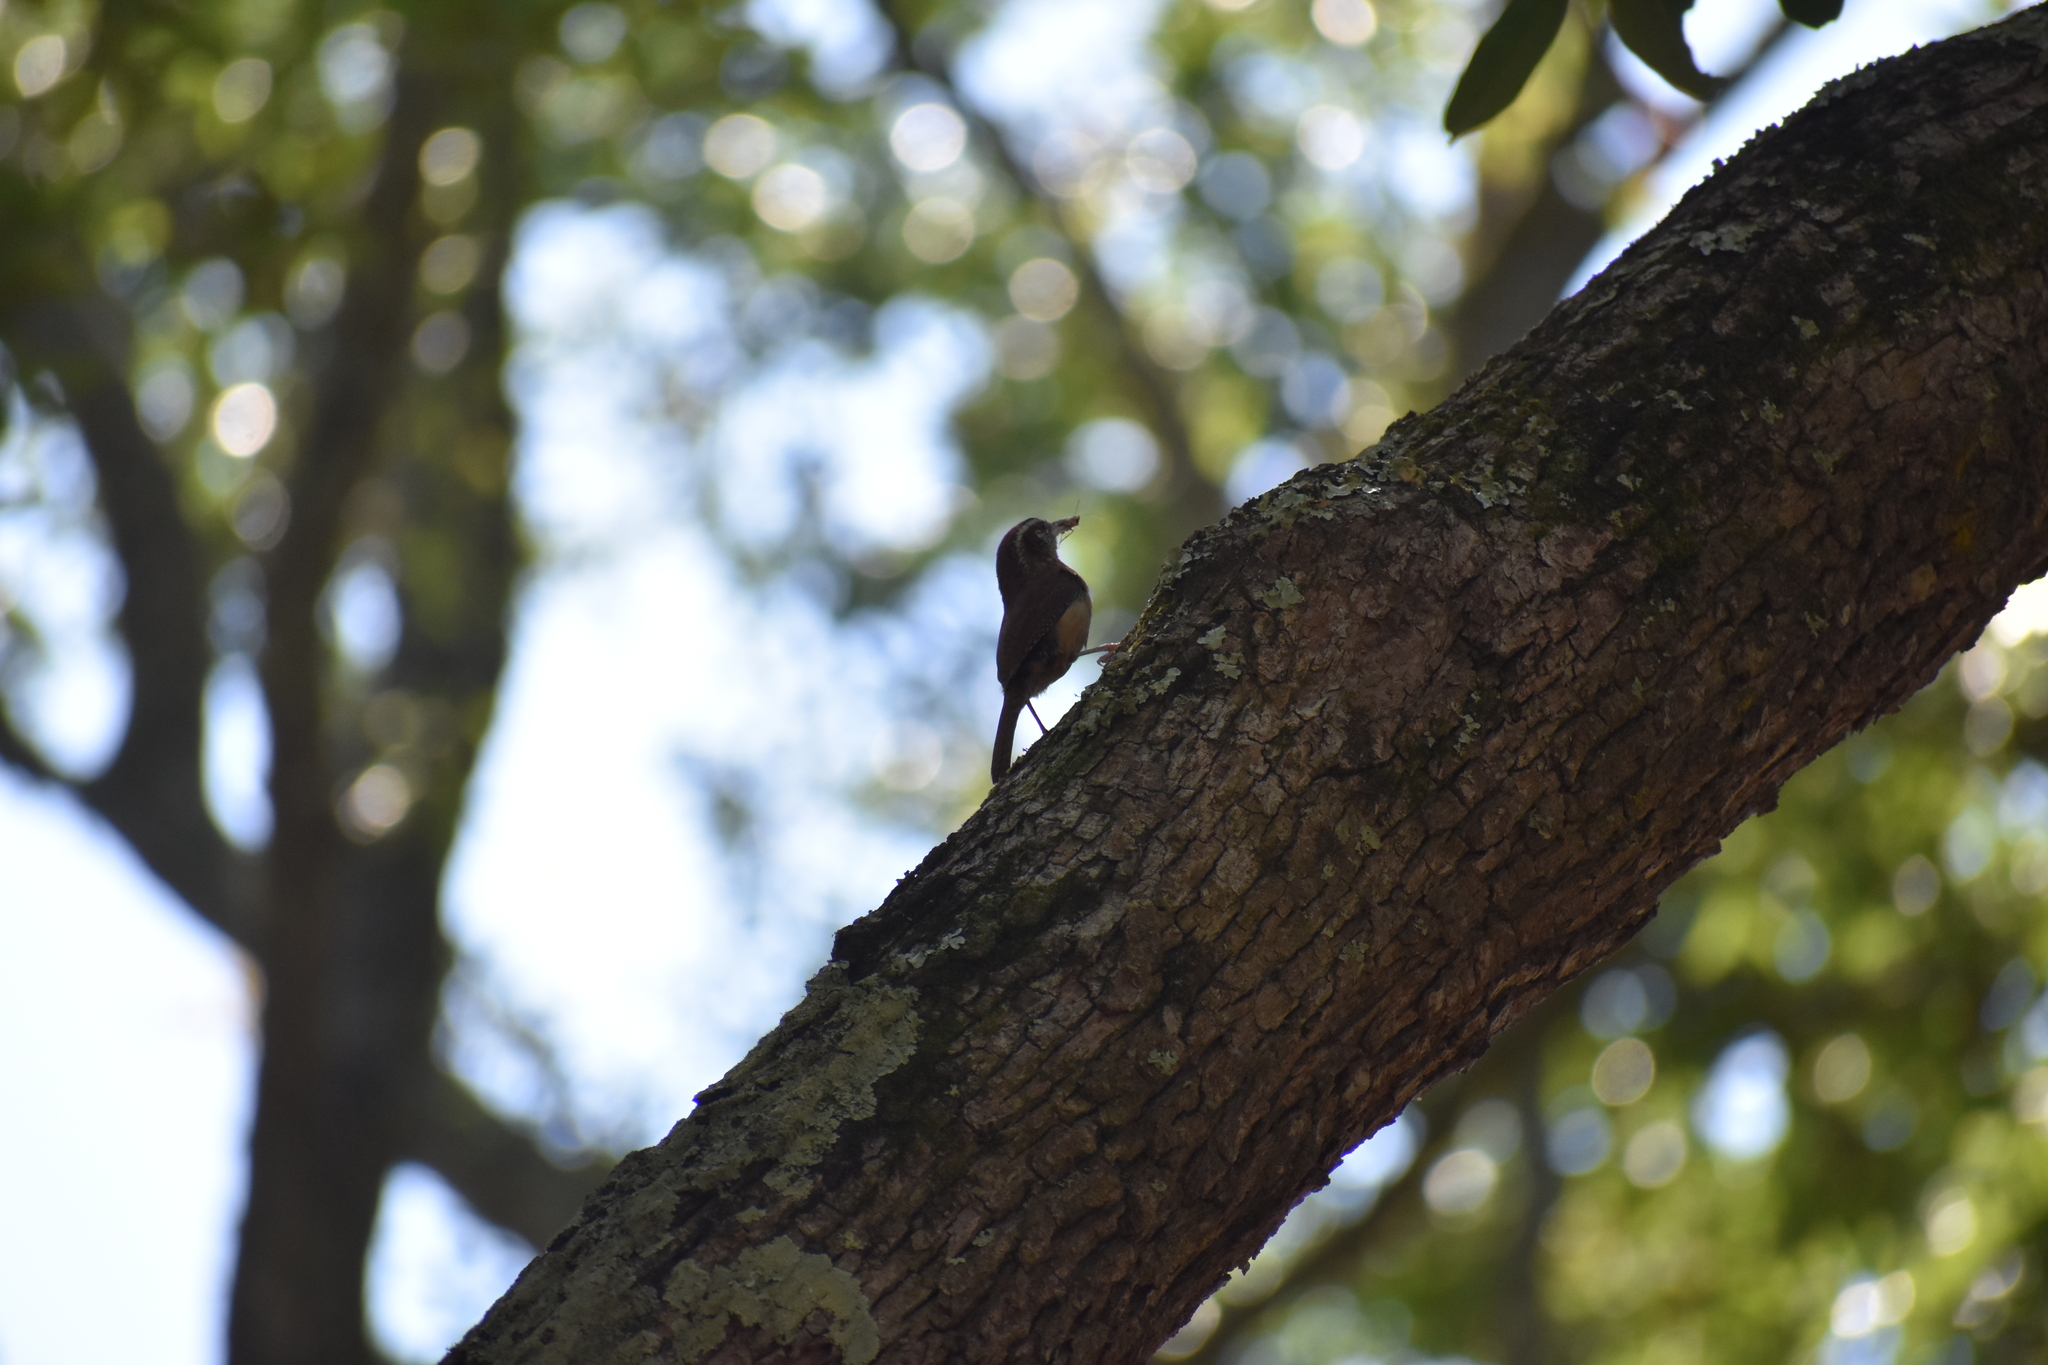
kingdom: Animalia
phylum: Chordata
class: Aves
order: Passeriformes
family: Sittidae
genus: Sitta
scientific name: Sitta canadensis
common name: Red-breasted nuthatch
